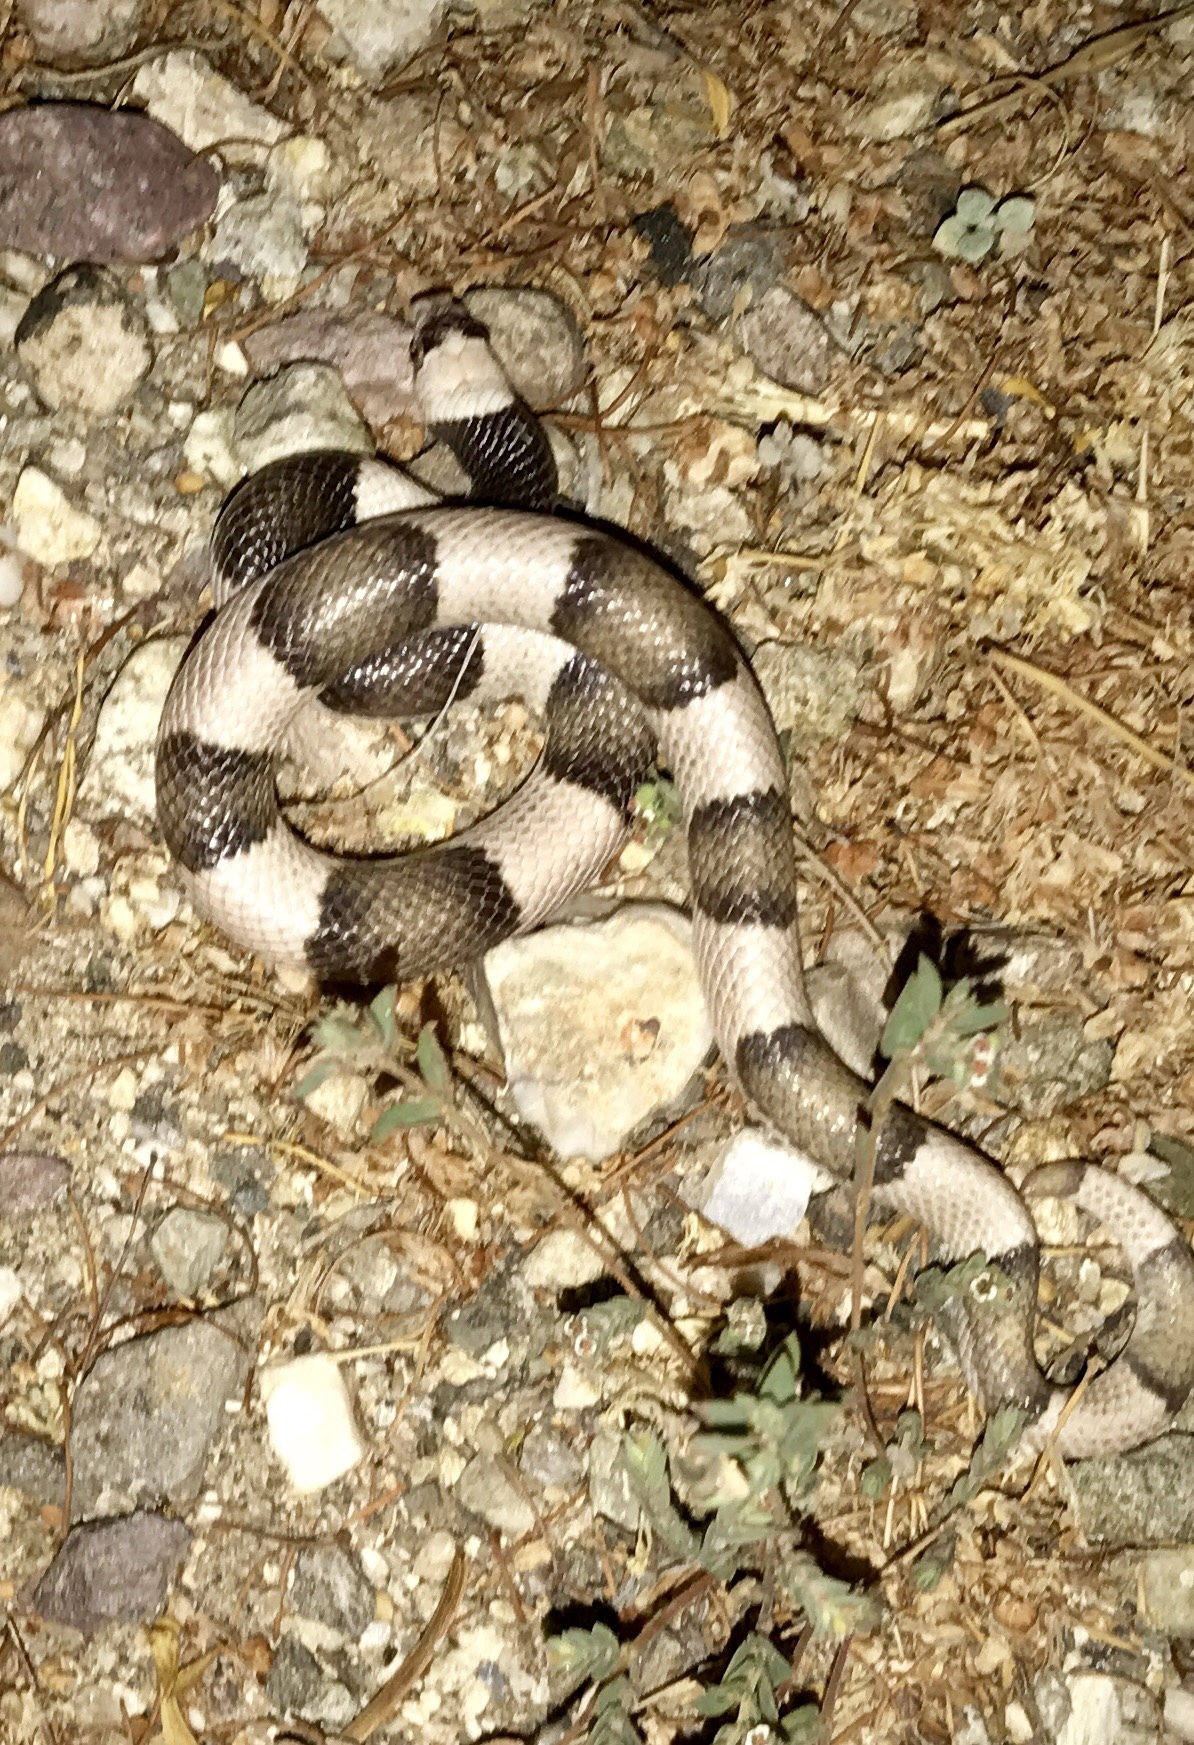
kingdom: Animalia
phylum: Chordata
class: Squamata
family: Colubridae
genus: Phyllorhynchus
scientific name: Phyllorhynchus browni
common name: Saddled leafnose snake
